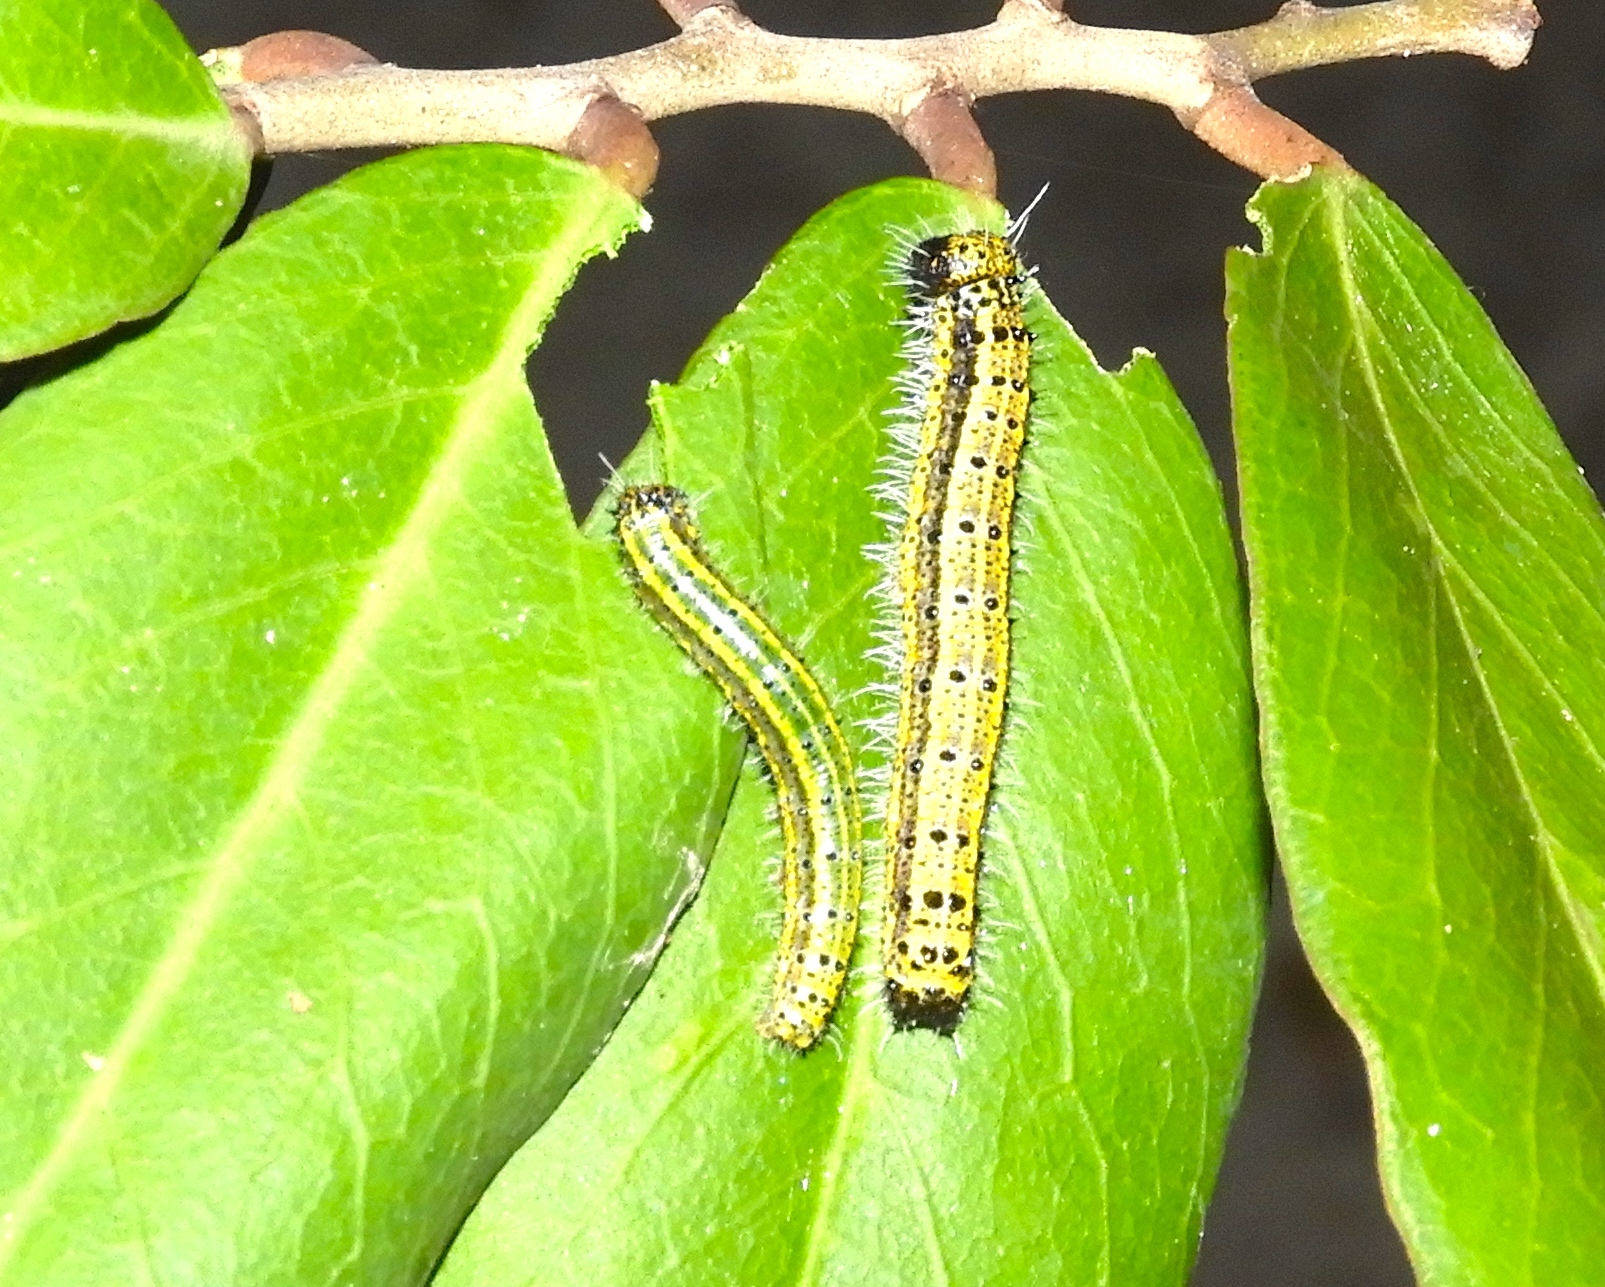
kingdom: Animalia
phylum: Arthropoda
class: Insecta
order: Lepidoptera
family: Pieridae
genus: Ascia
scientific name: Ascia monuste
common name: Great southern white
